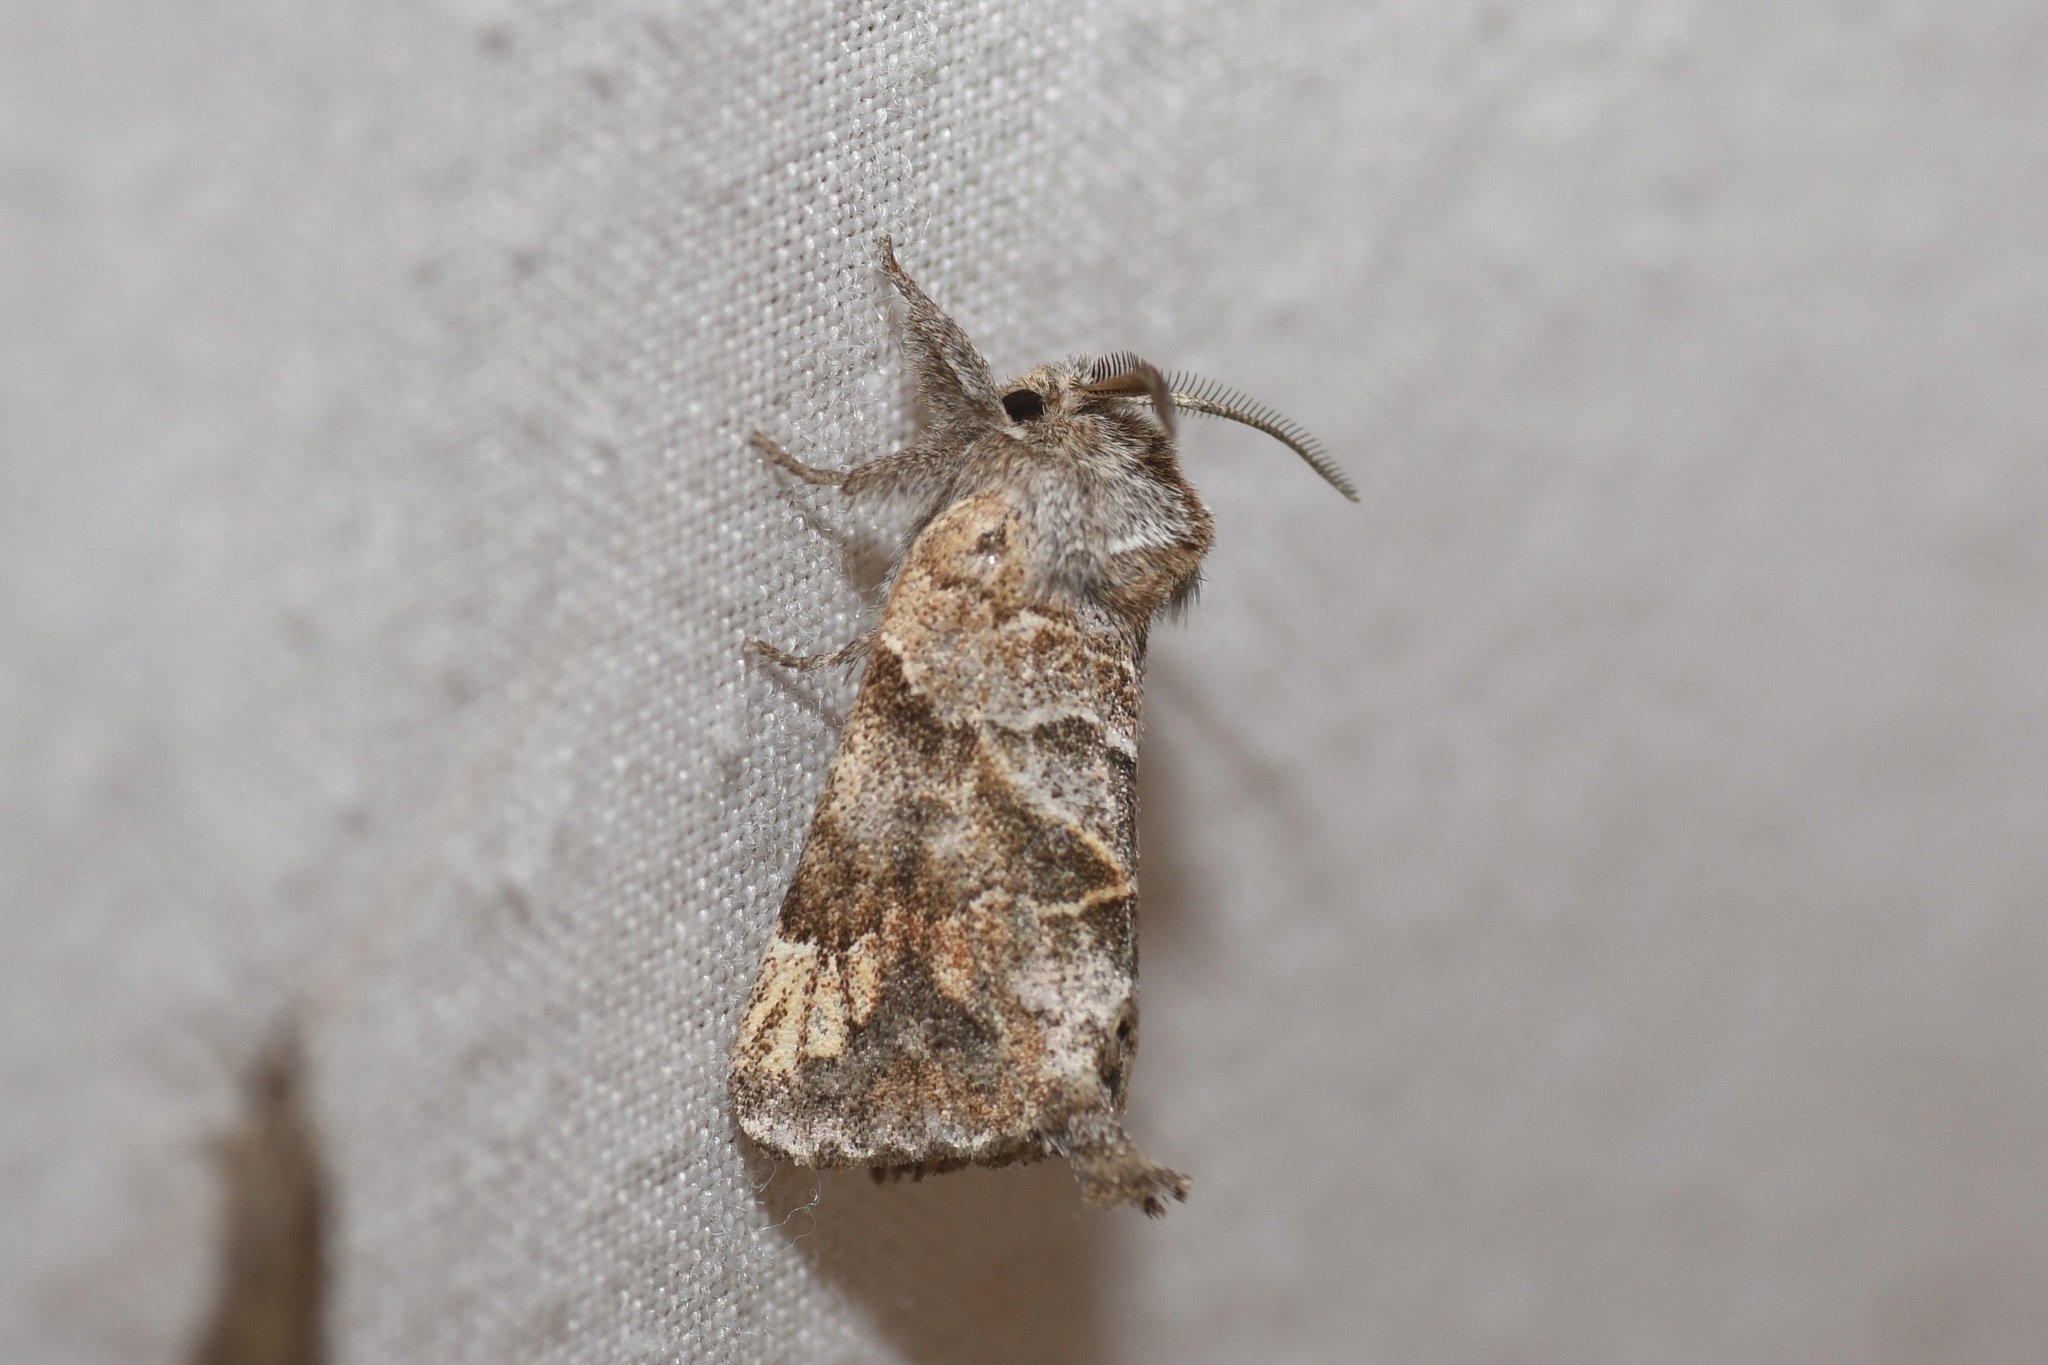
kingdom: Animalia
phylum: Arthropoda
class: Insecta
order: Lepidoptera
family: Notodontidae
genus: Clostera
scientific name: Clostera strigosa
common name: Striped chocolate-tip moth
